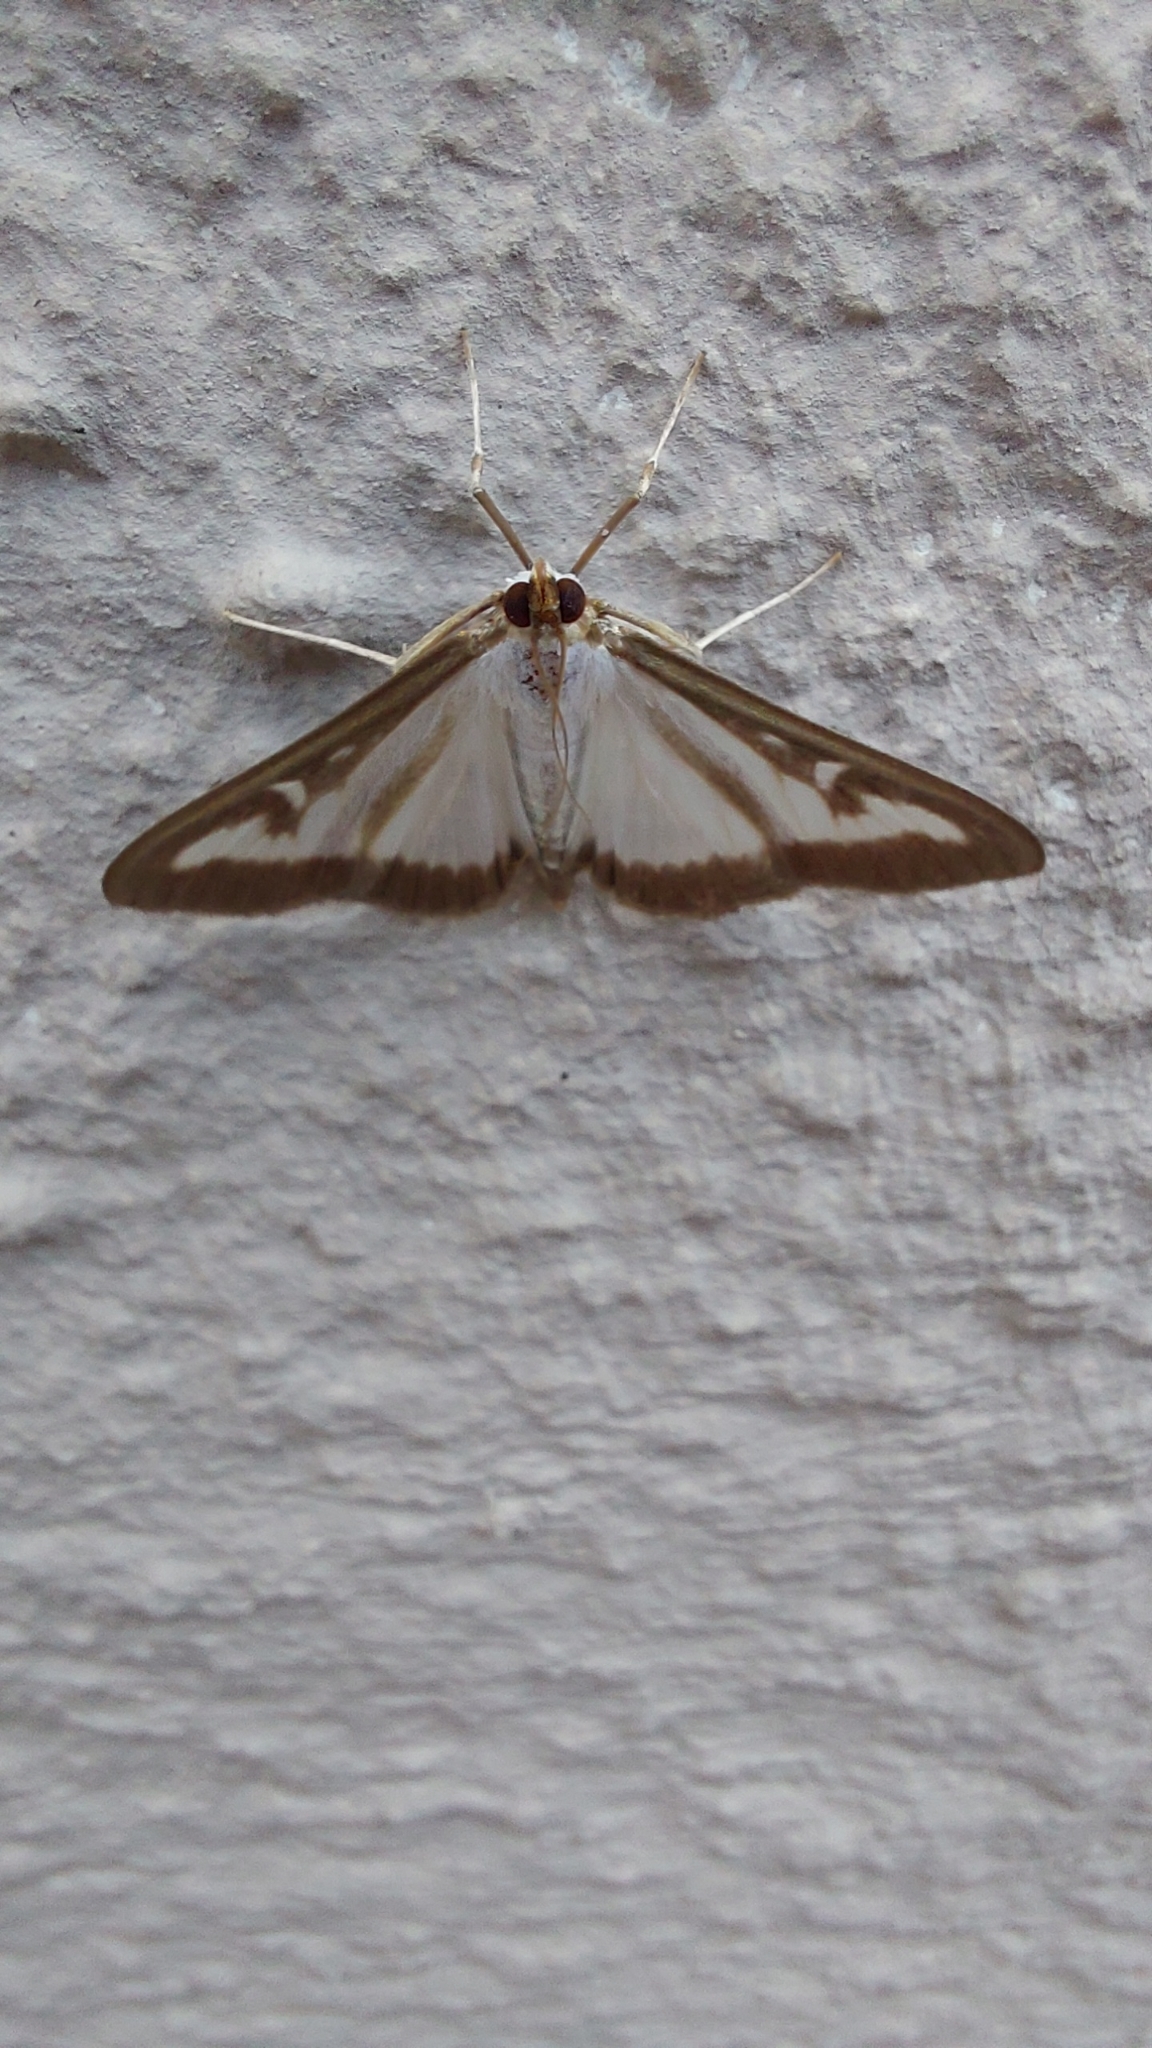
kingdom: Animalia
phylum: Arthropoda
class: Insecta
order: Lepidoptera
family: Crambidae
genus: Cydalima
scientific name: Cydalima perspectalis
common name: Box tree moth
